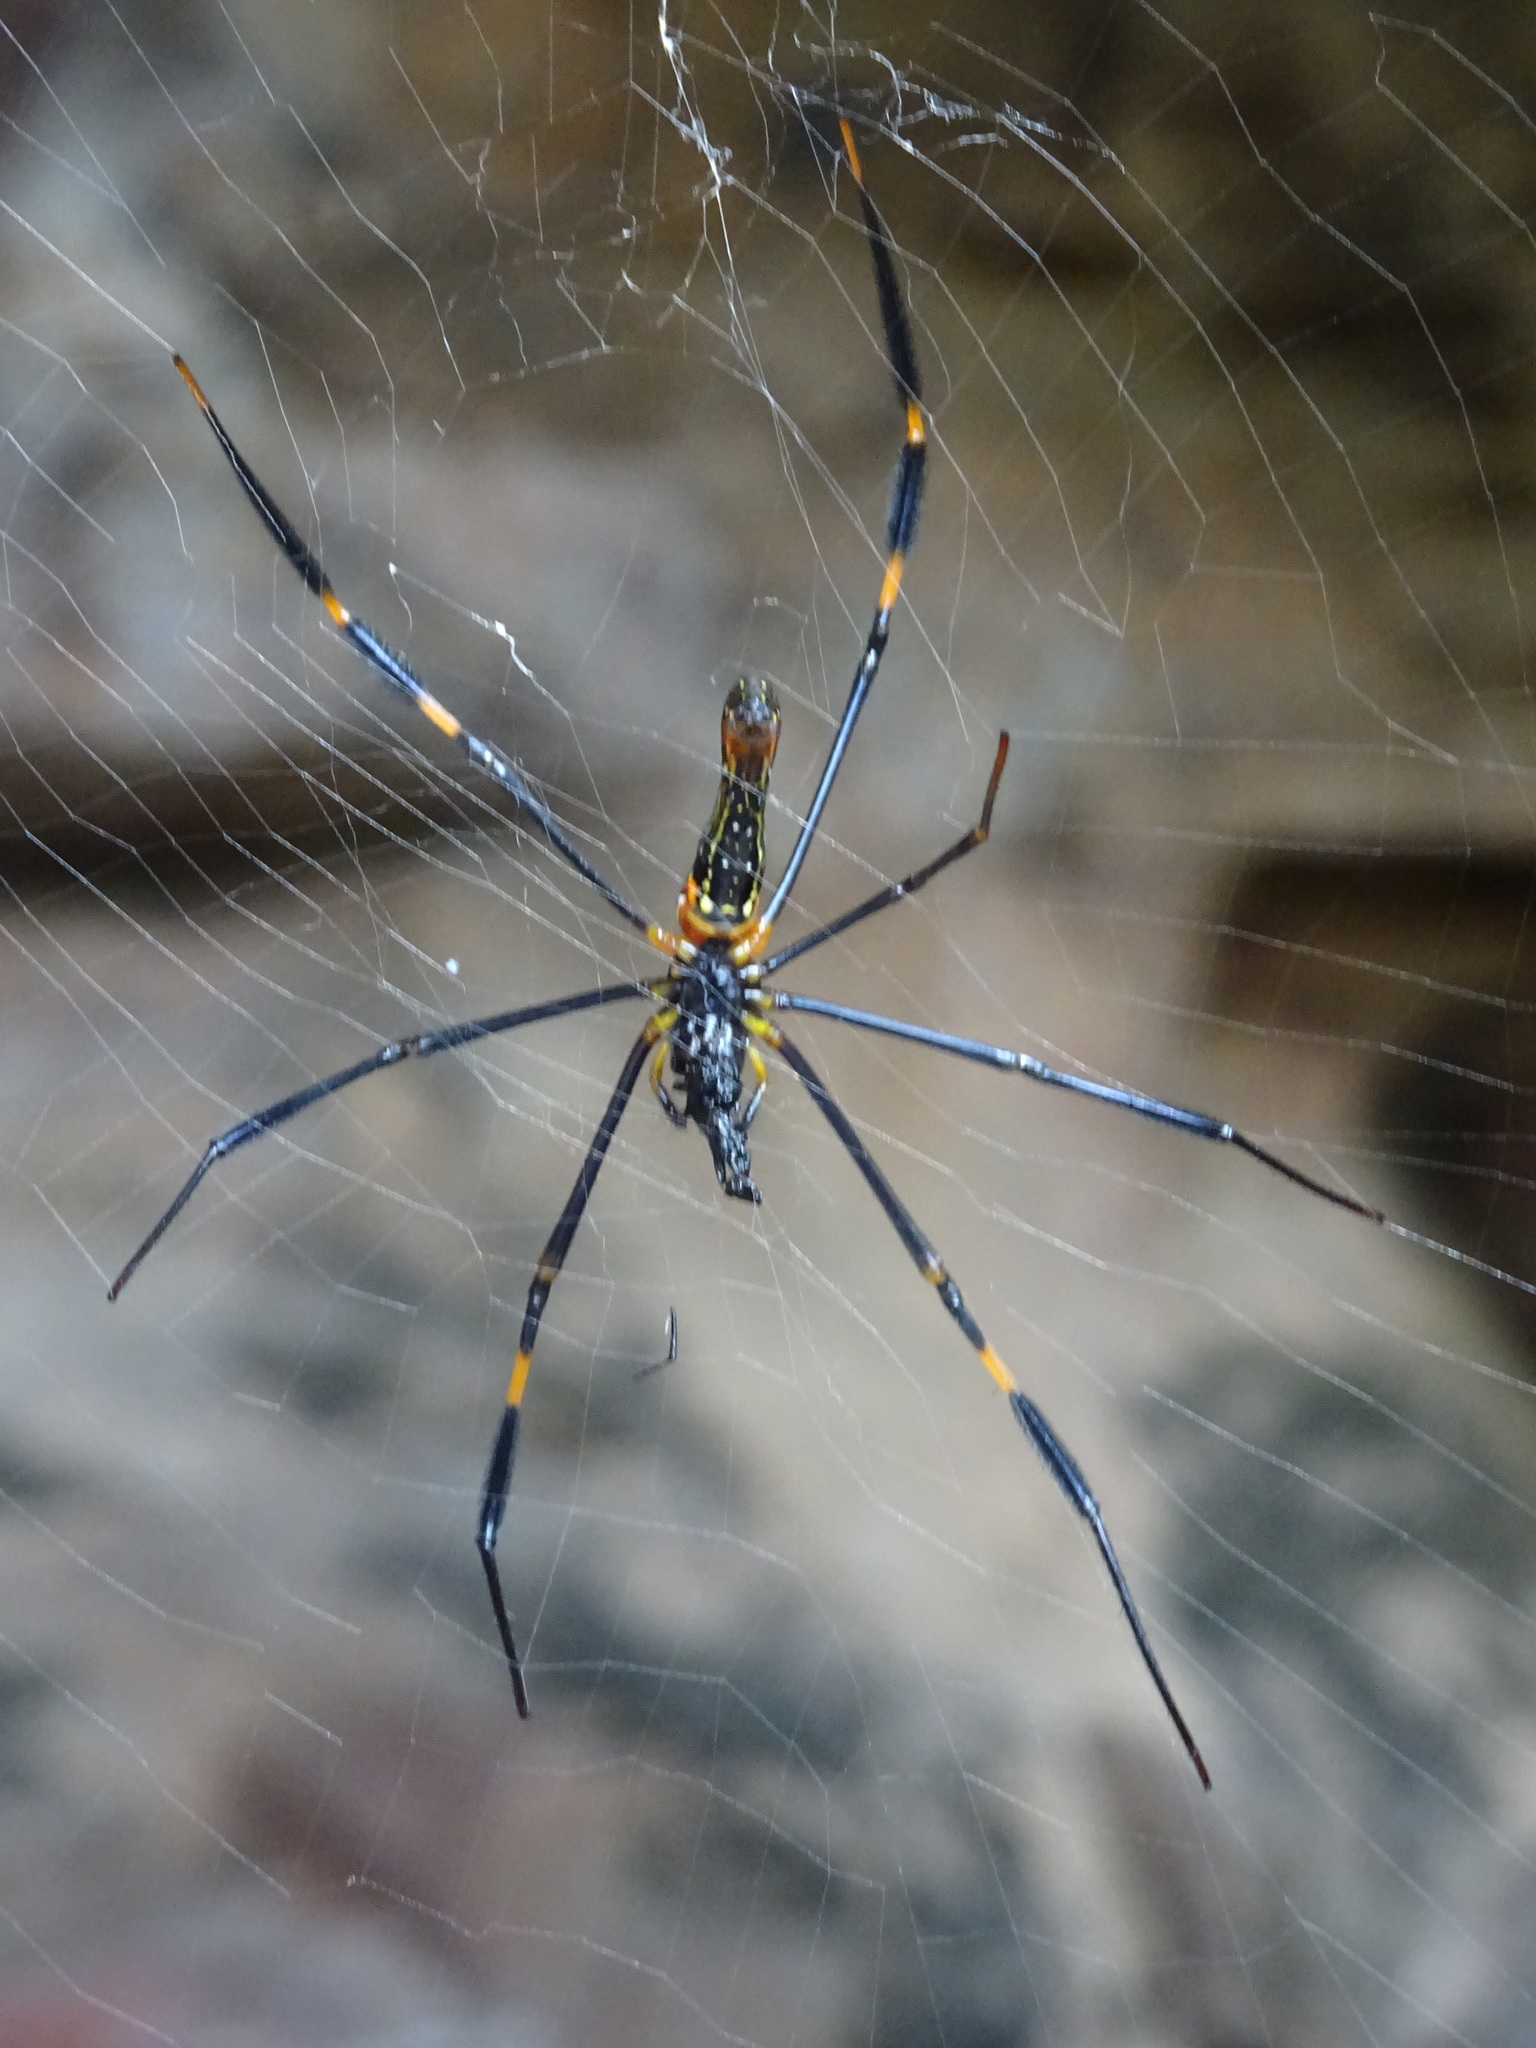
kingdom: Animalia
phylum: Arthropoda
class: Arachnida
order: Araneae
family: Araneidae
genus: Nephila
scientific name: Nephila pilipes
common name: Giant golden orb weaver
